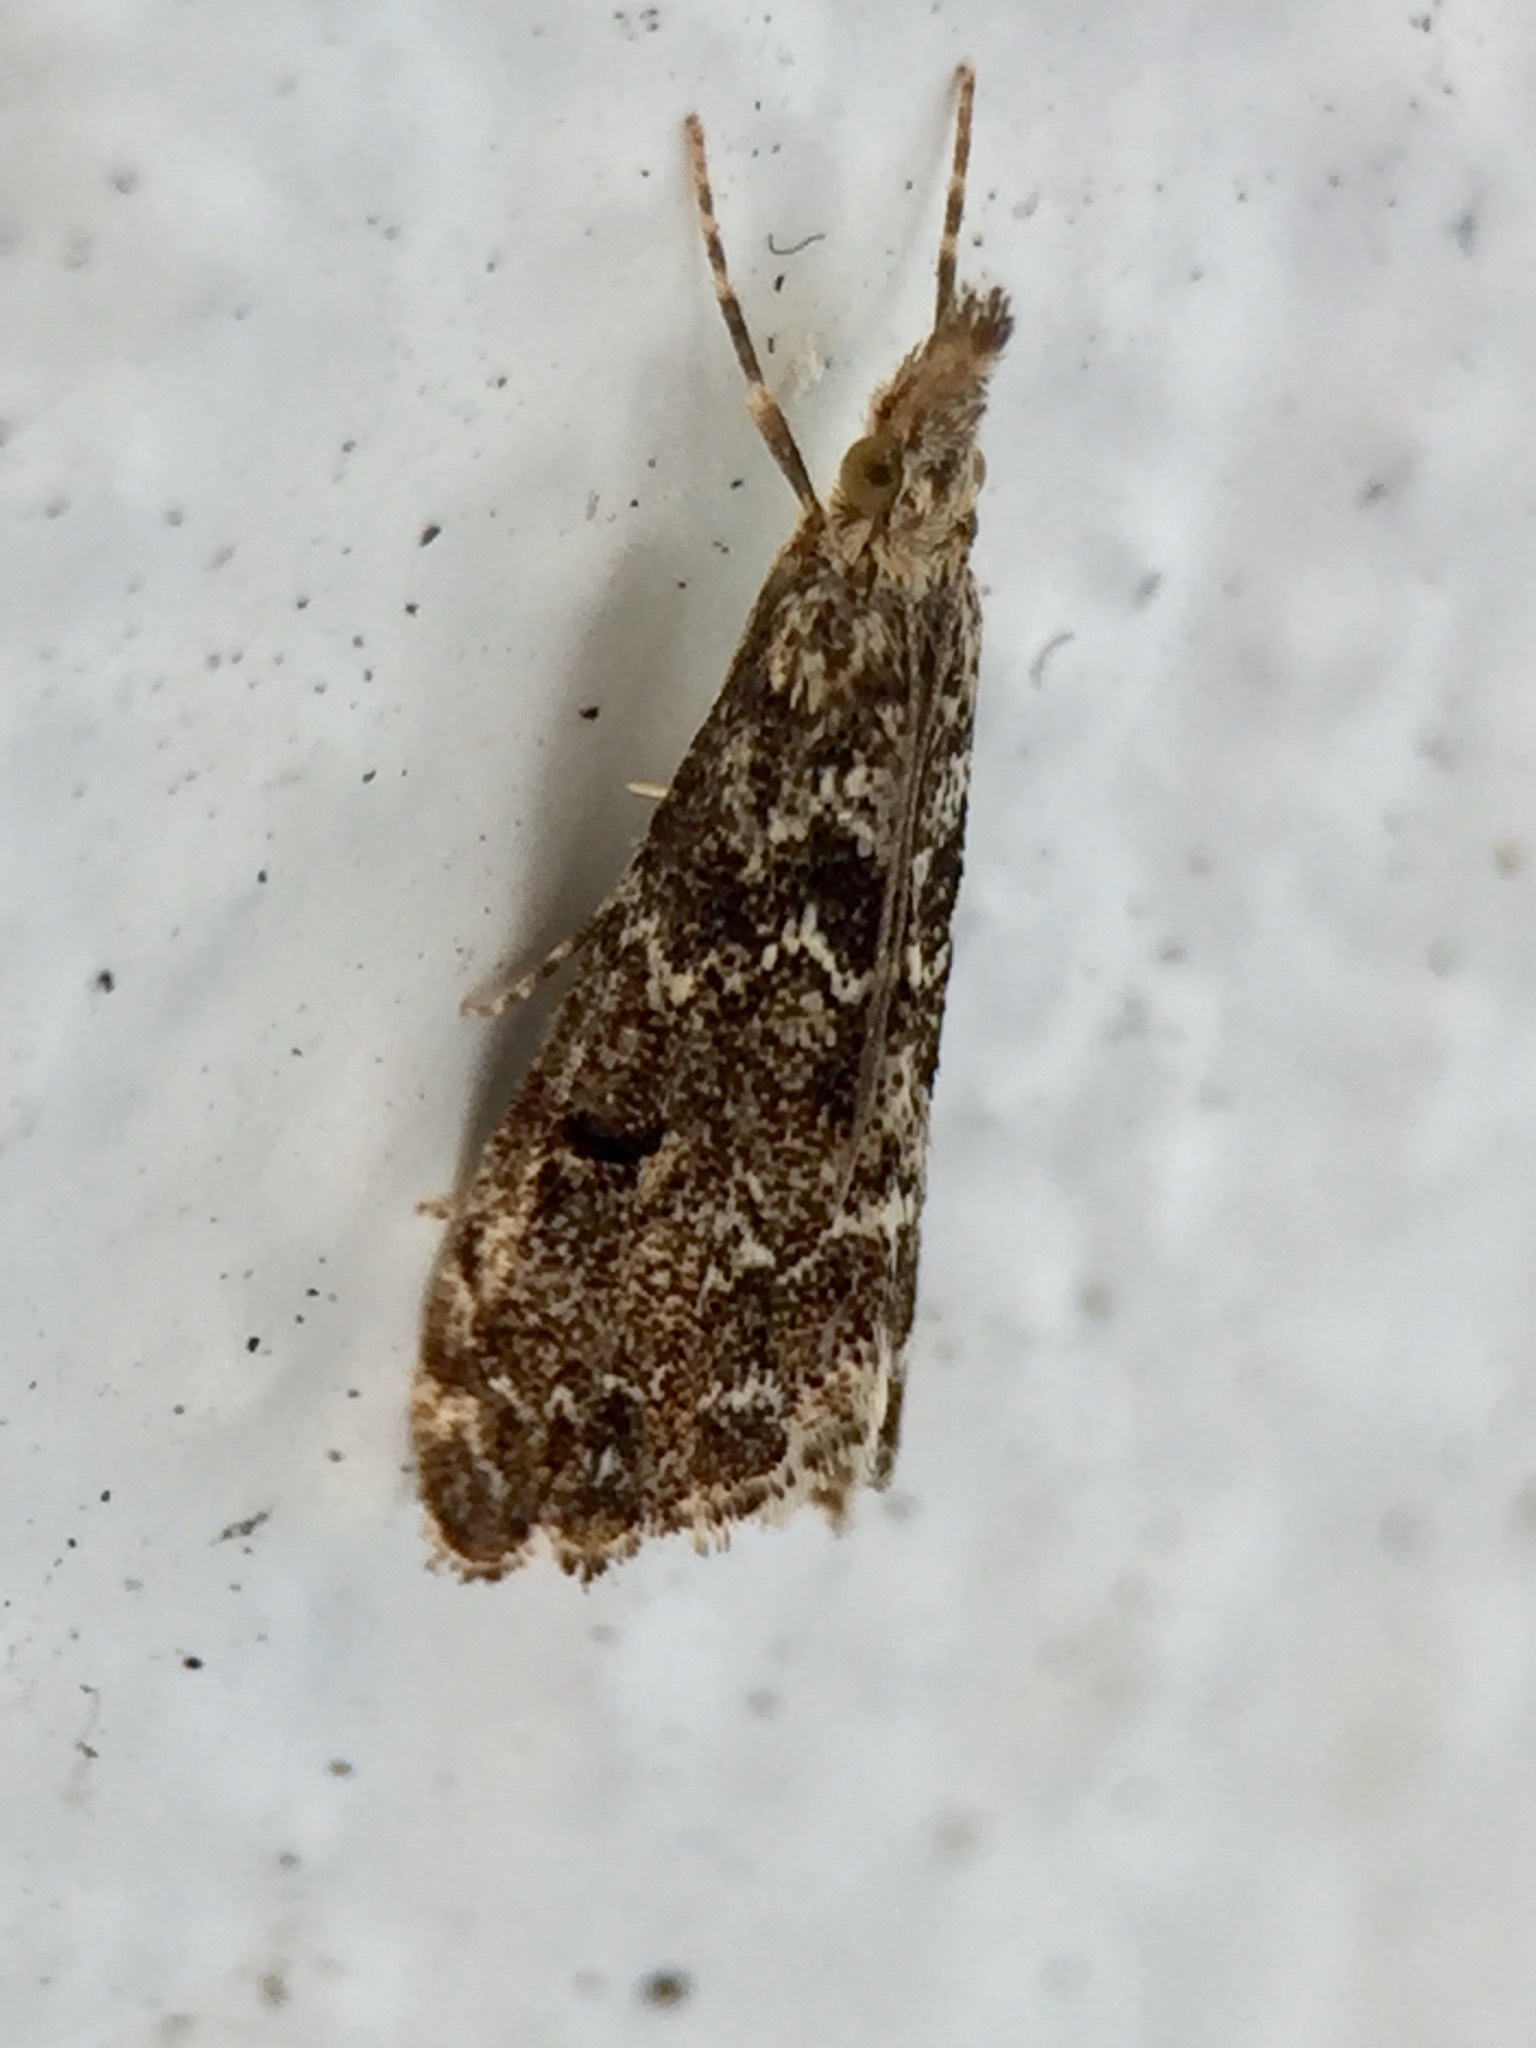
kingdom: Animalia
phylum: Arthropoda
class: Insecta
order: Lepidoptera
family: Crambidae
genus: Glaucocharis
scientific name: Glaucocharis elaina
